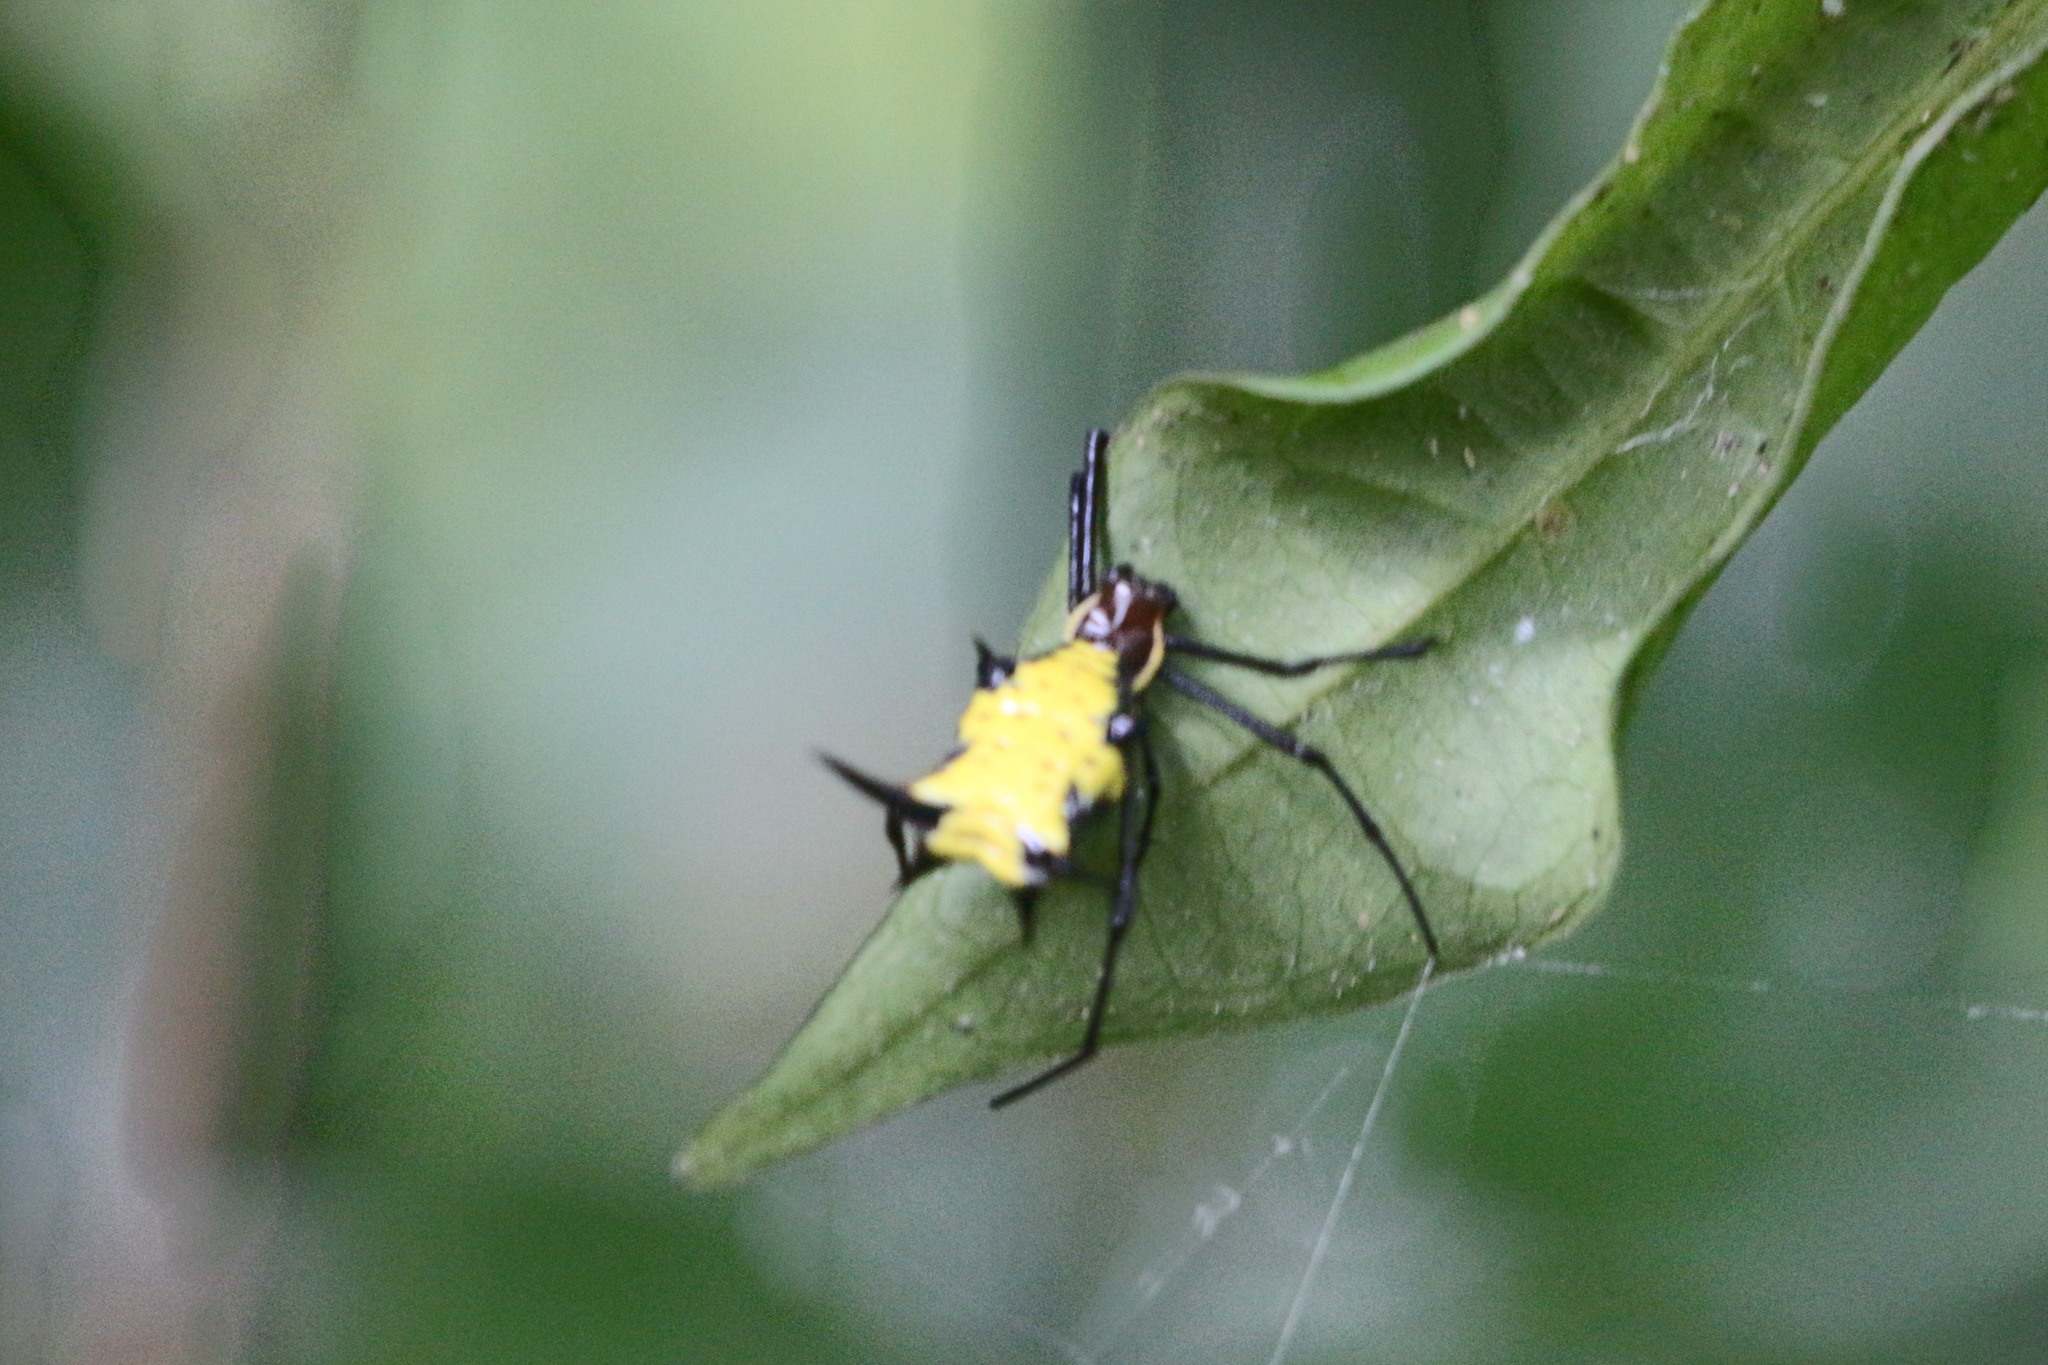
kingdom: Animalia
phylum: Arthropoda
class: Arachnida
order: Araneae
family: Araneidae
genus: Micrathena
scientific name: Micrathena miles
